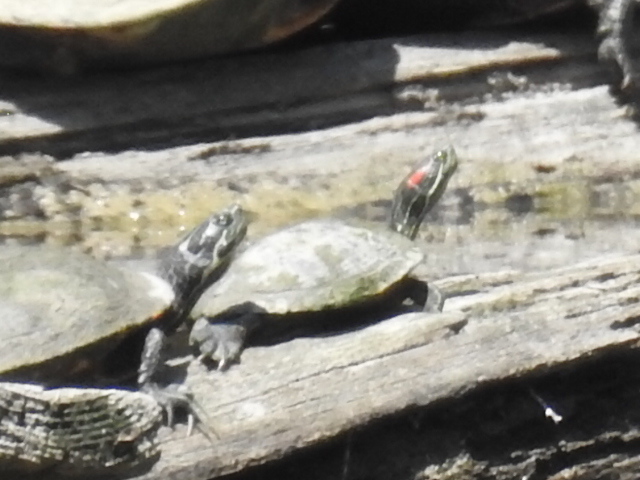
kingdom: Animalia
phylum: Chordata
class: Testudines
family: Emydidae
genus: Trachemys
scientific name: Trachemys scripta
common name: Slider
